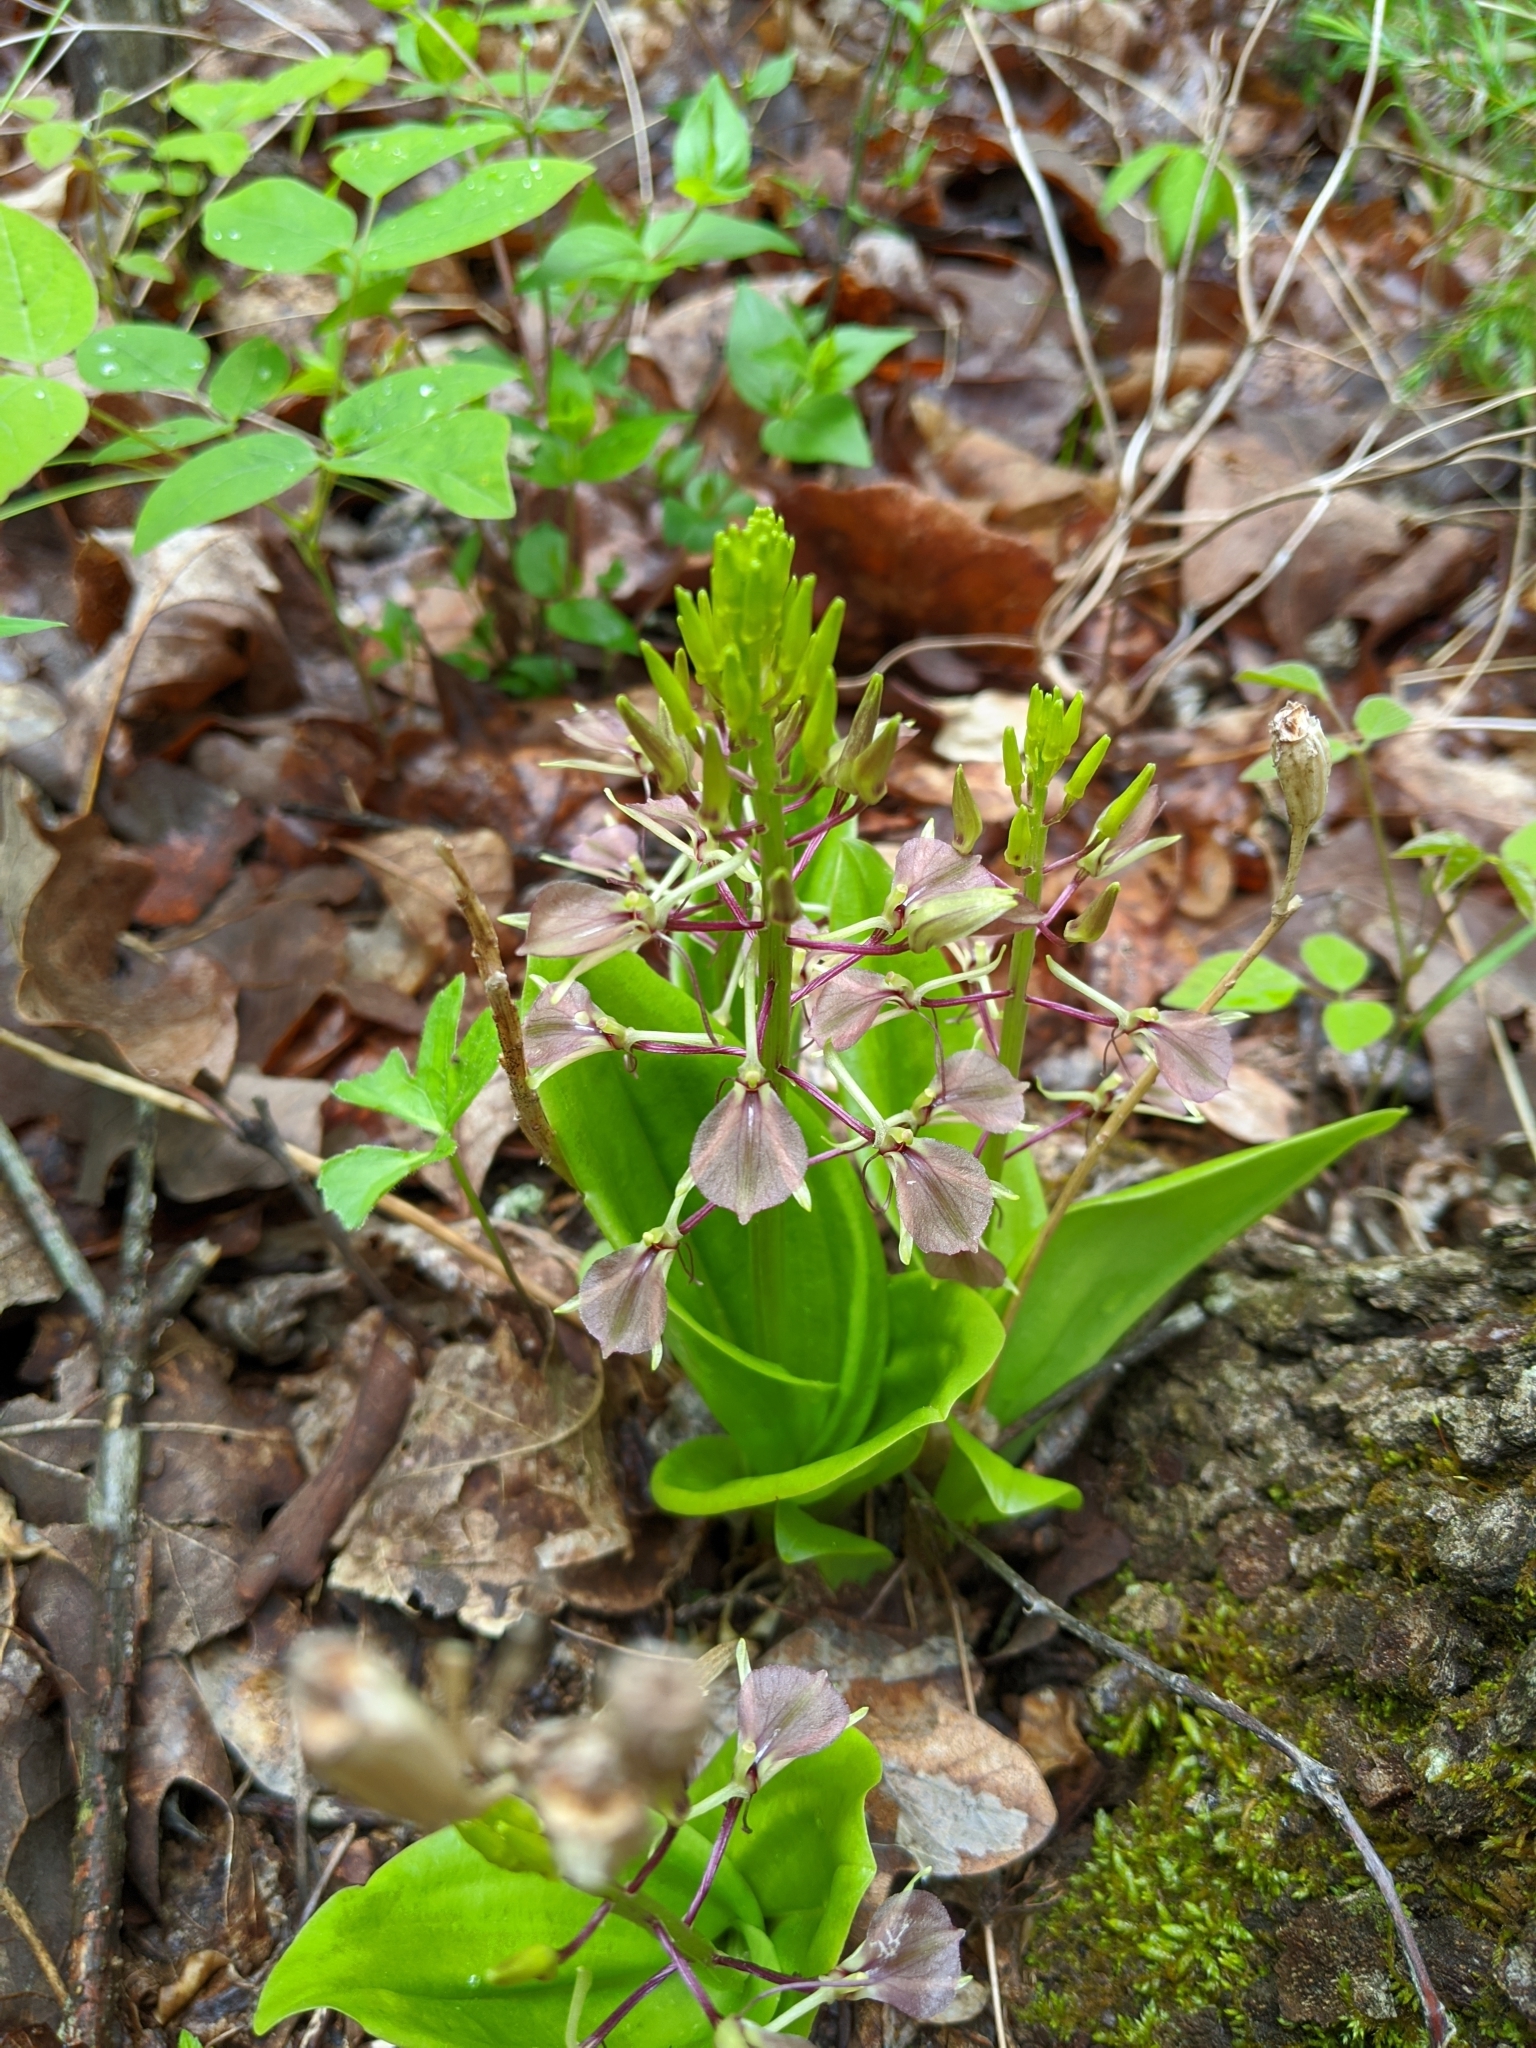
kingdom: Plantae
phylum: Tracheophyta
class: Liliopsida
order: Asparagales
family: Orchidaceae
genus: Liparis
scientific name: Liparis liliifolia
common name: Brown wide-lip orchid
